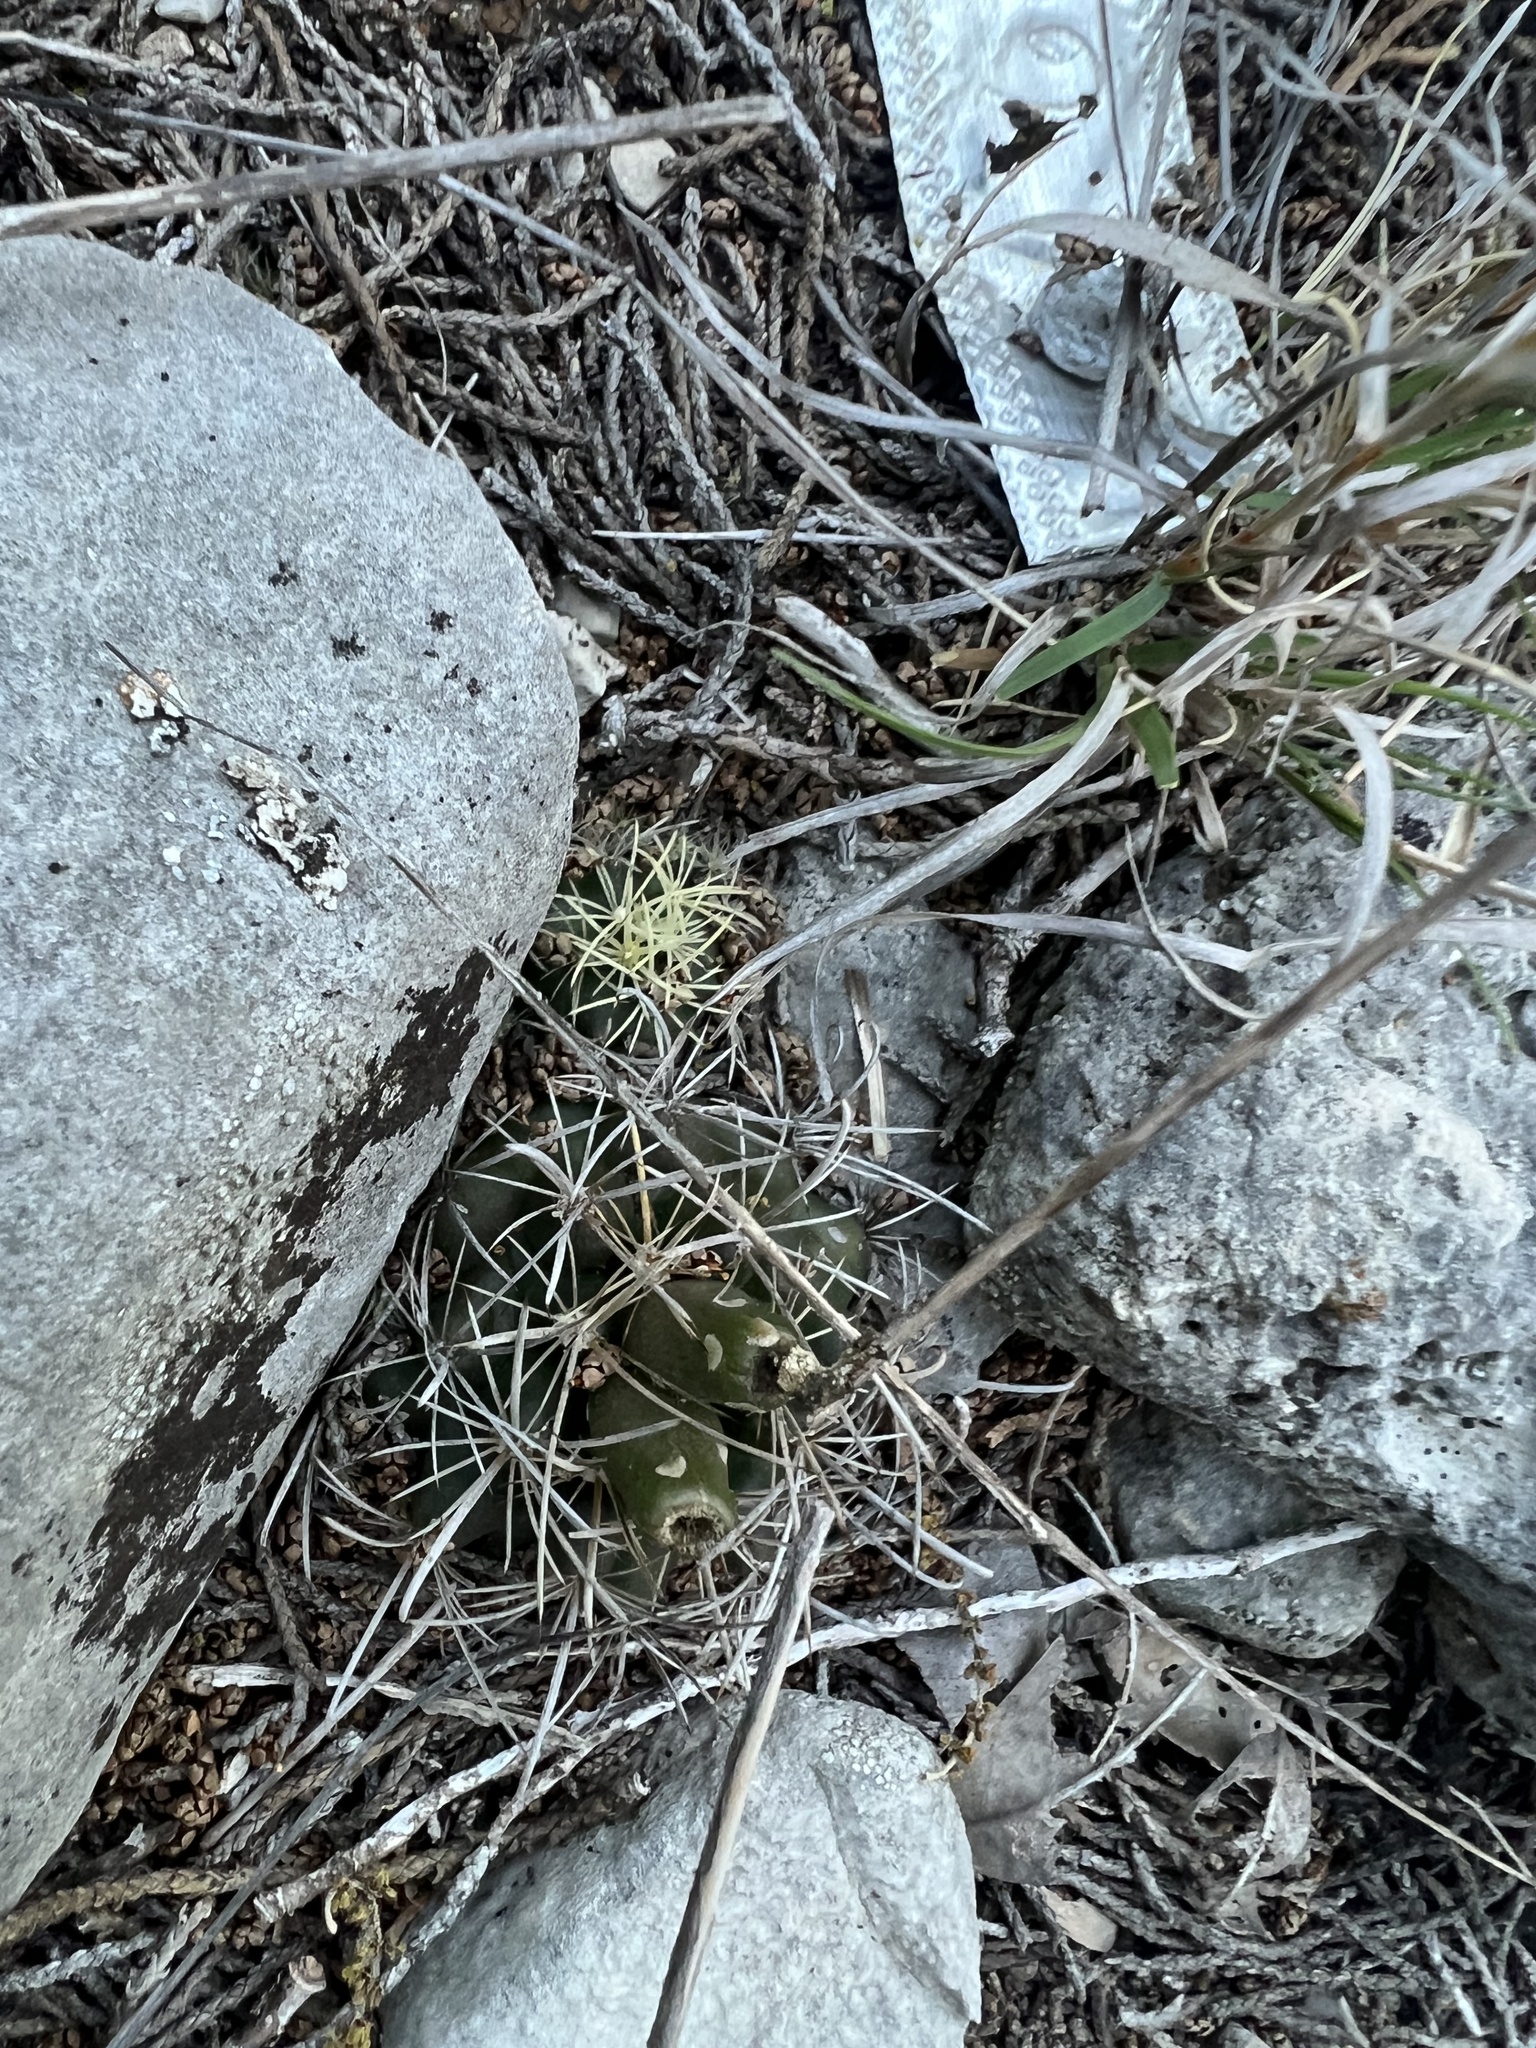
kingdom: Plantae
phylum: Tracheophyta
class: Magnoliopsida
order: Caryophyllales
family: Cactaceae
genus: Sclerocactus
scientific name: Sclerocactus brevihamatus
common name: Engelmann's fishhook cactus
